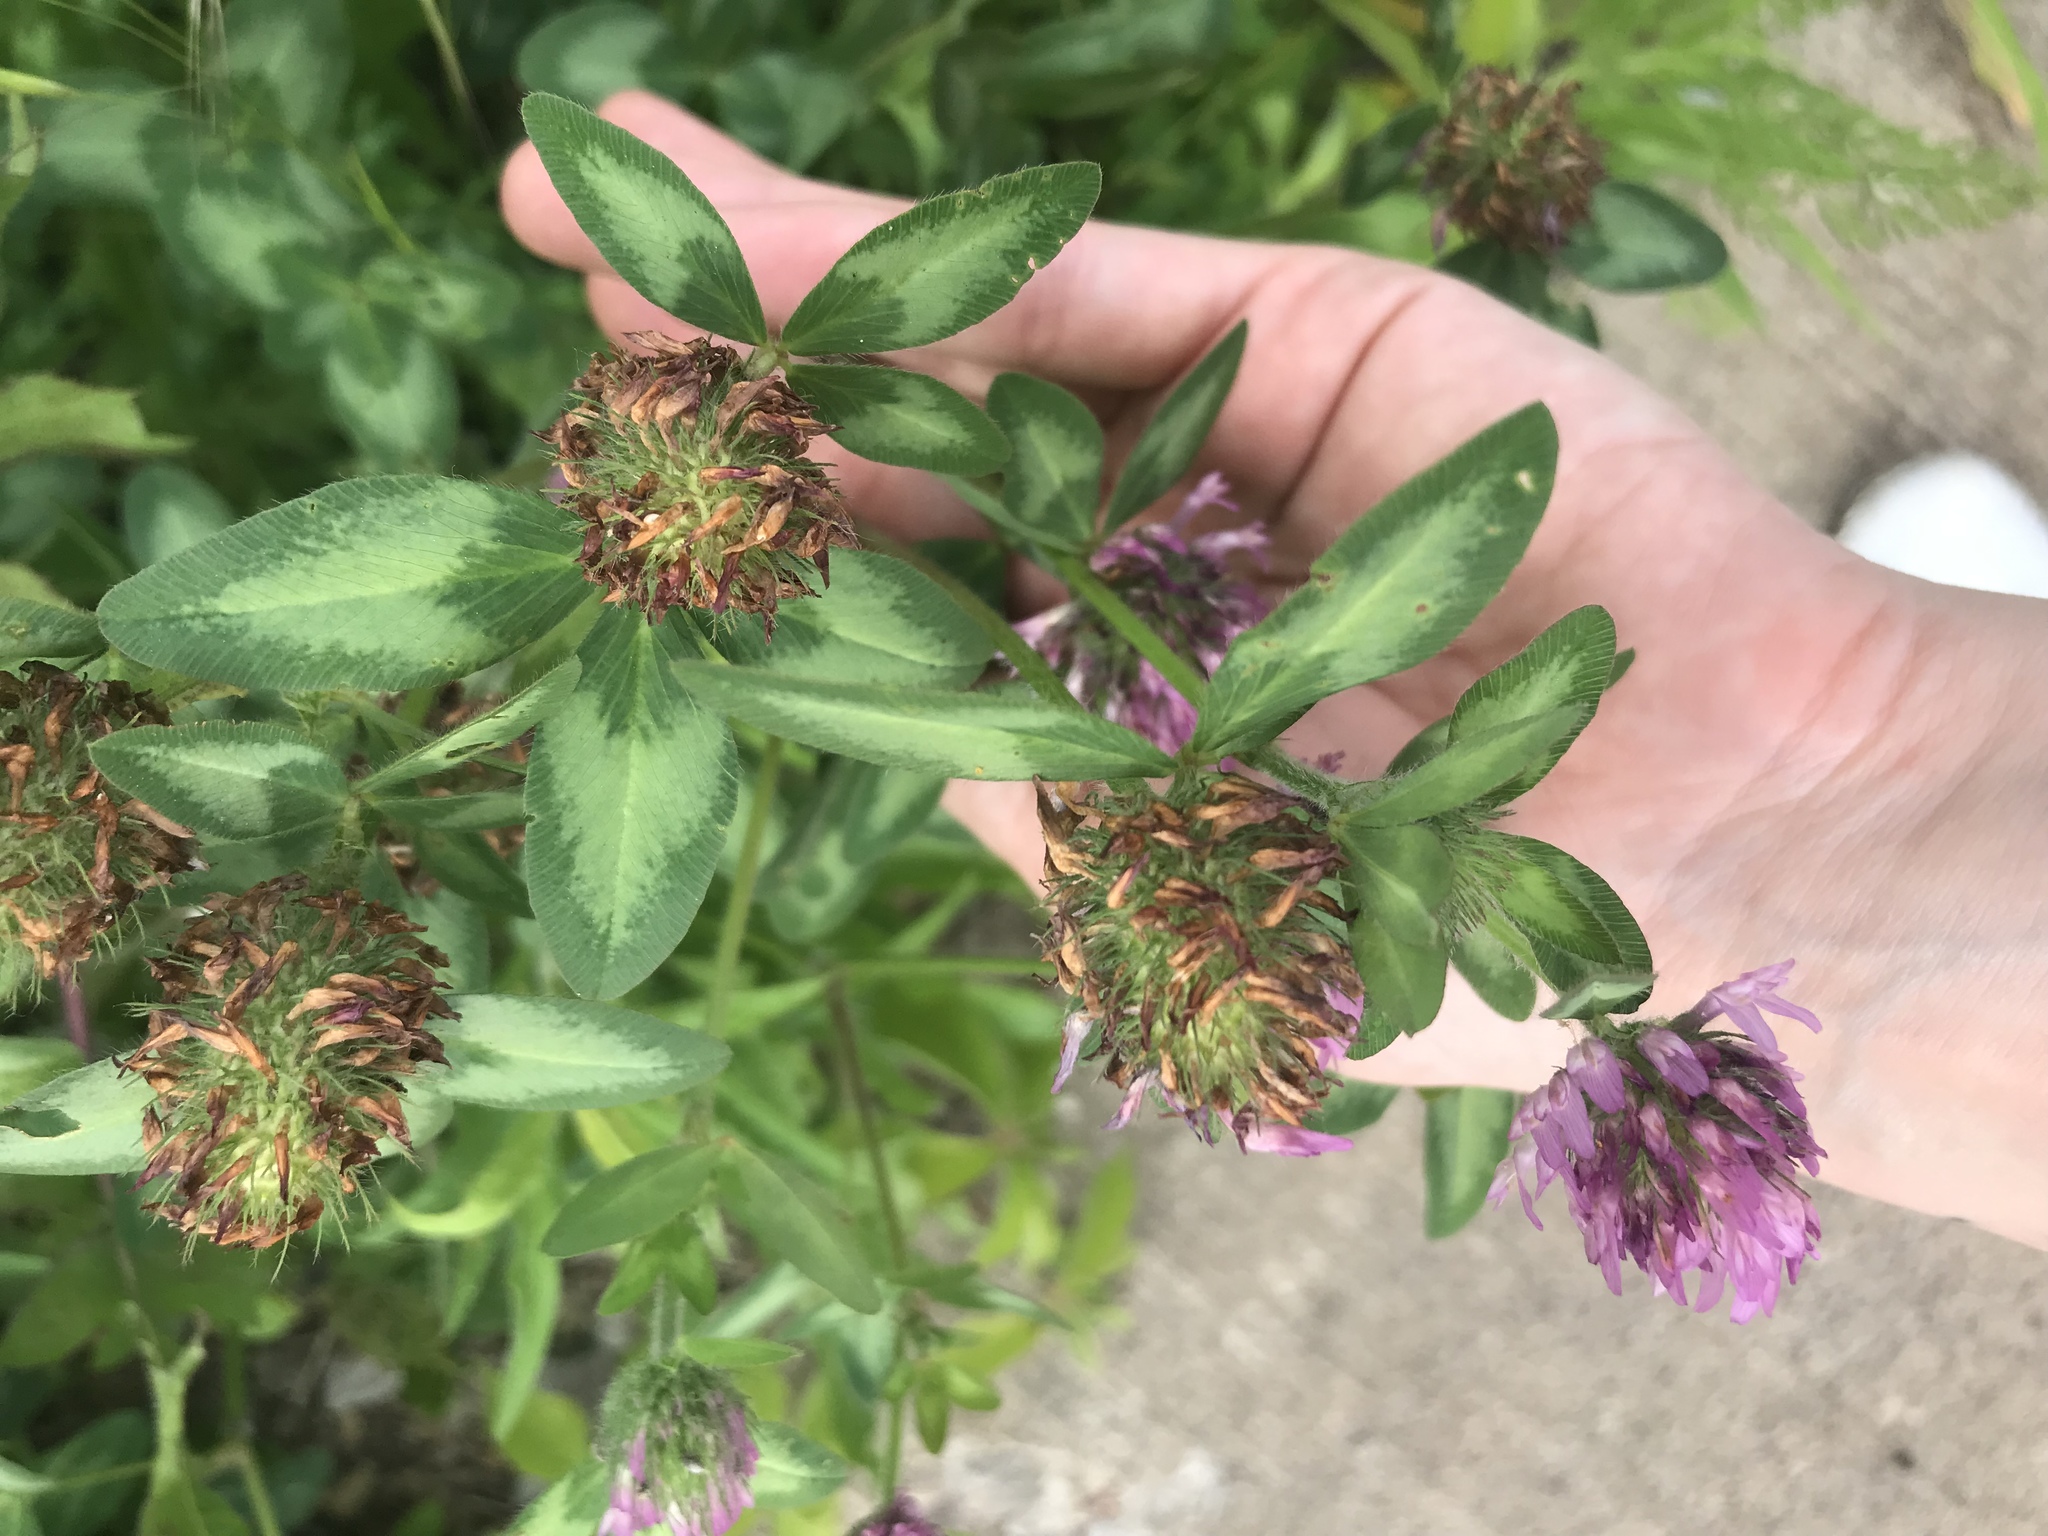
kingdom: Plantae
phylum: Tracheophyta
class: Magnoliopsida
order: Fabales
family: Fabaceae
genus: Trifolium
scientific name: Trifolium pratense
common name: Red clover
